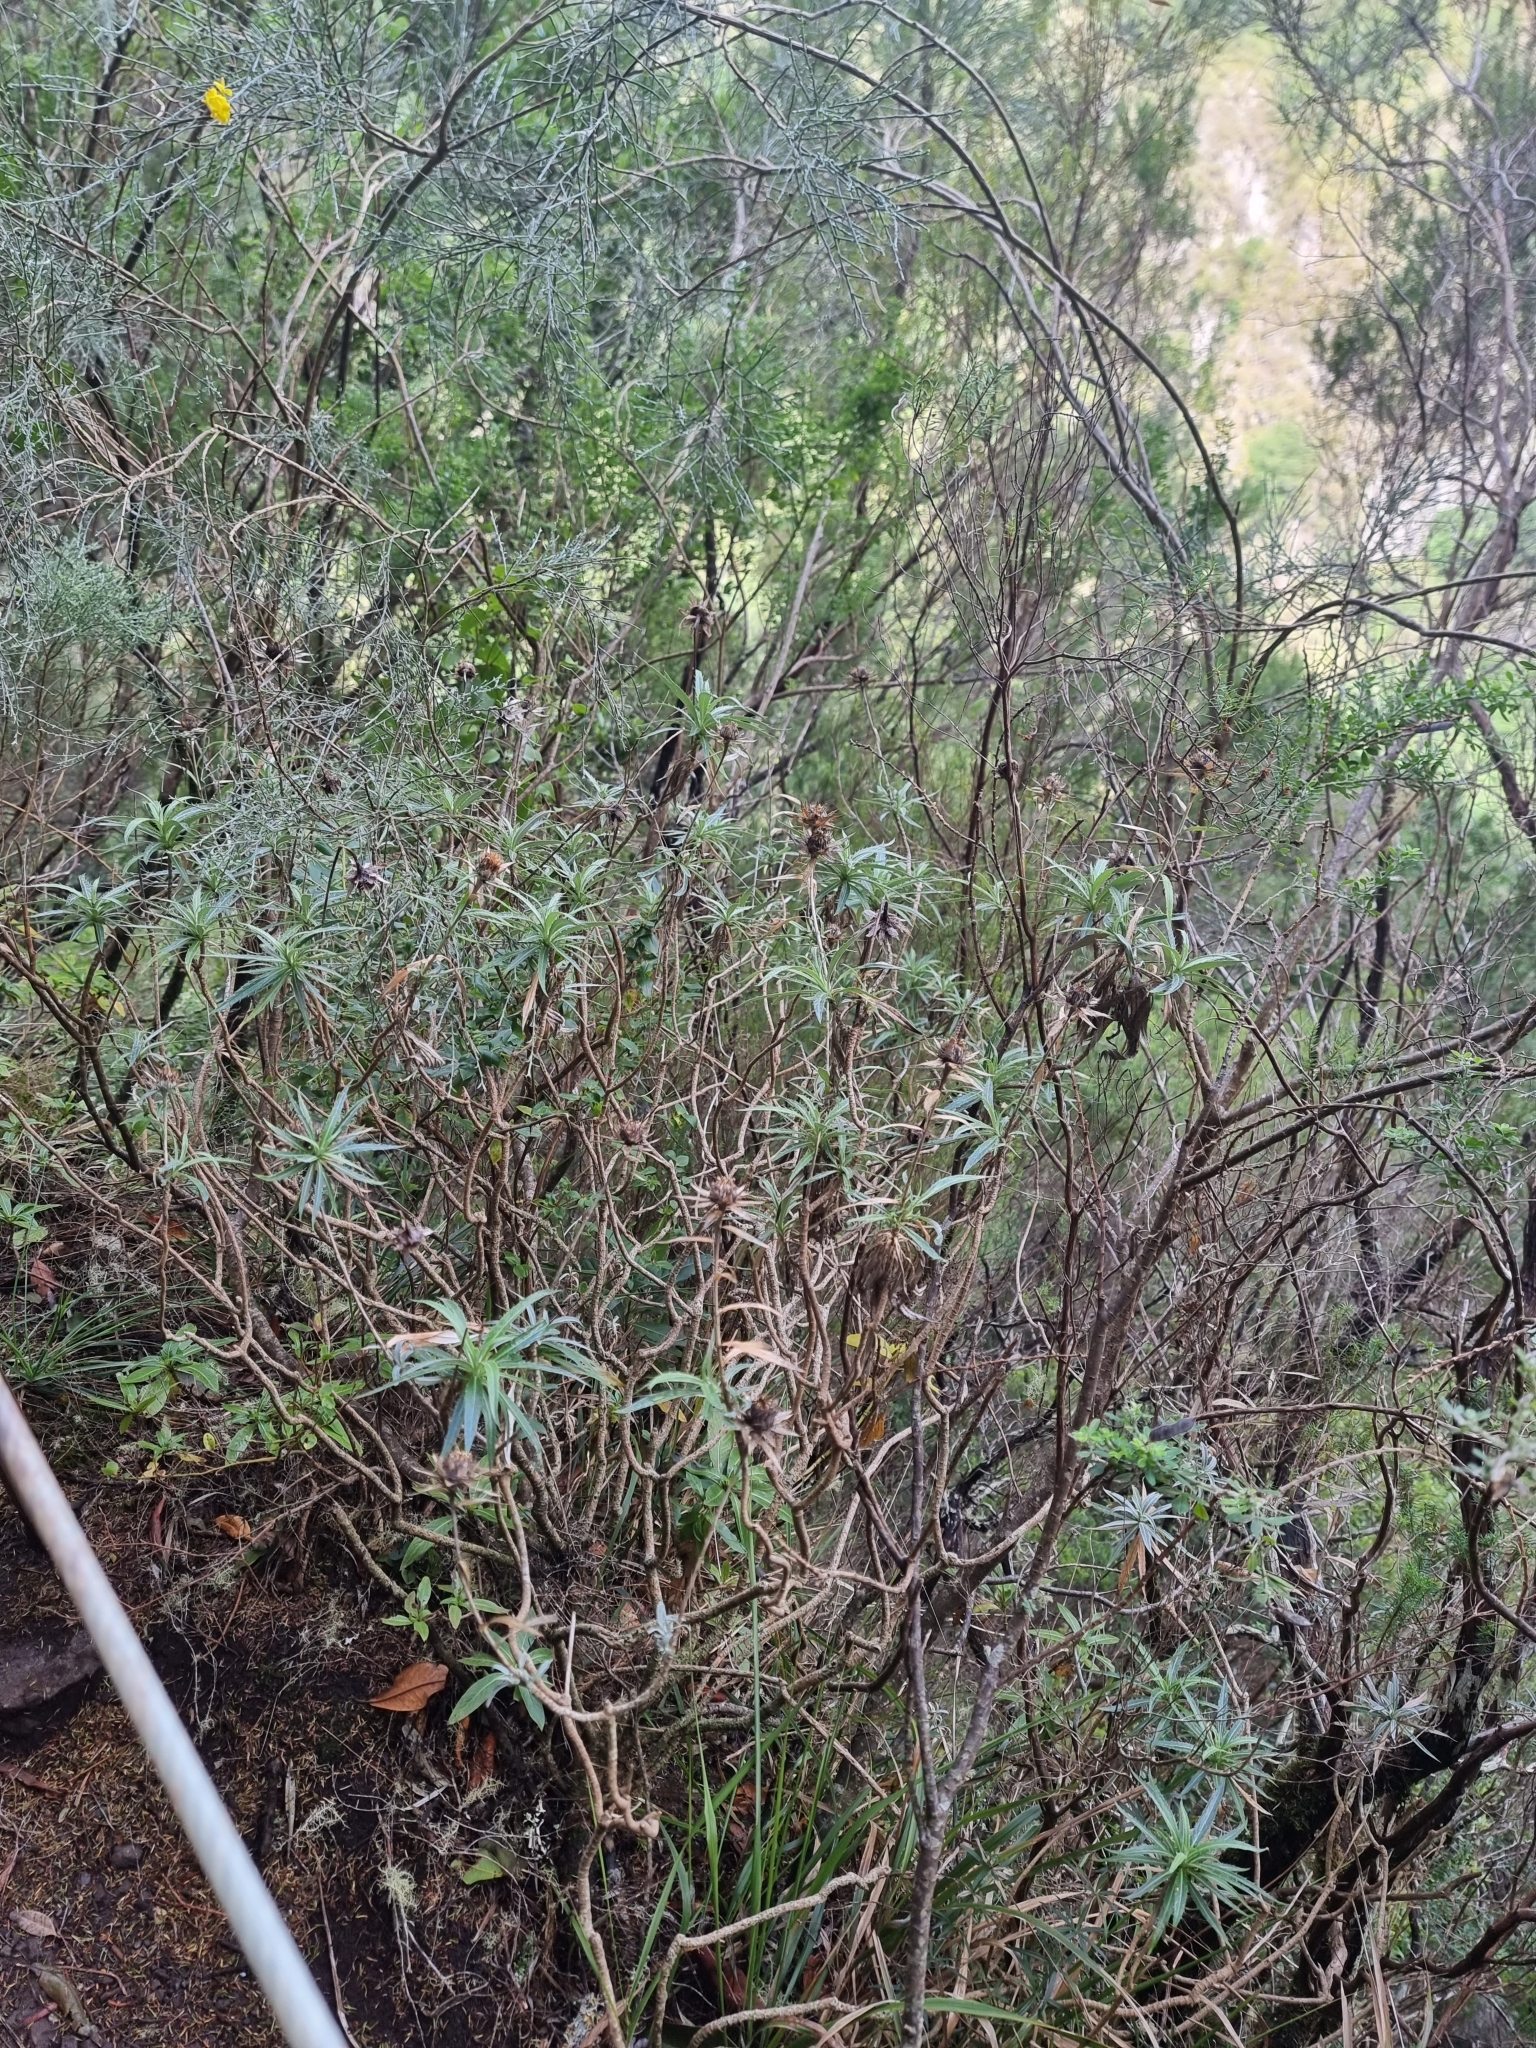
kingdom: Plantae
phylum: Tracheophyta
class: Magnoliopsida
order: Asterales
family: Asteraceae
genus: Carlina
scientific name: Carlina salicifolia
